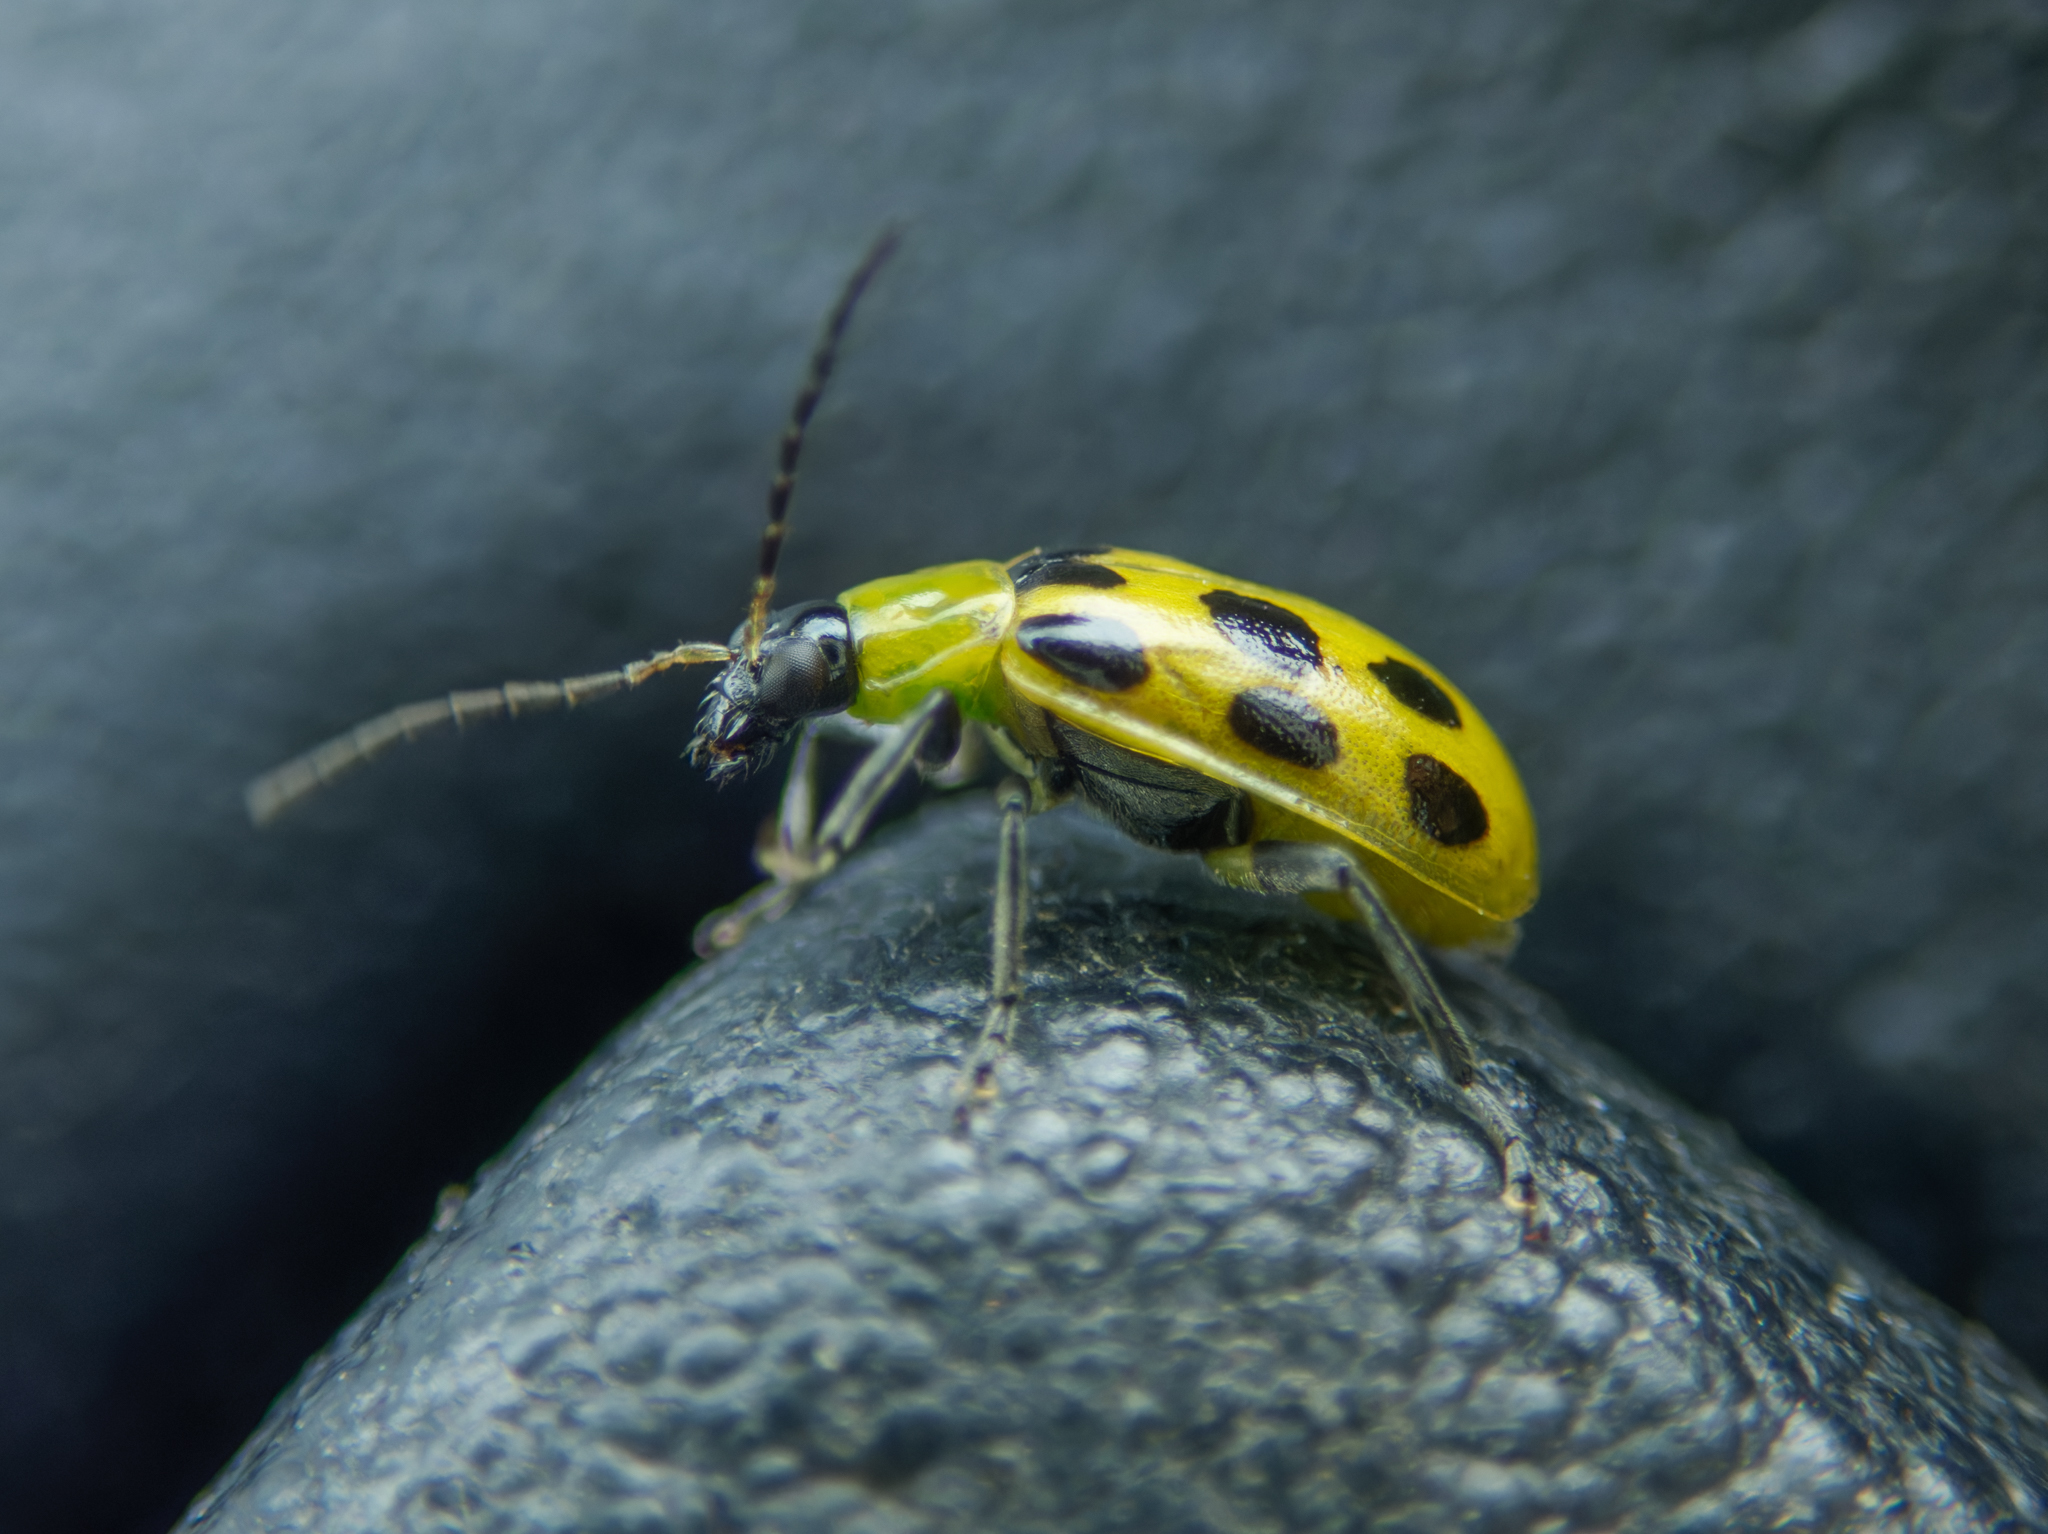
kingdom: Animalia
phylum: Arthropoda
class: Insecta
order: Coleoptera
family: Chrysomelidae
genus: Diabrotica
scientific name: Diabrotica undecimpunctata
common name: Spotted cucumber beetle
